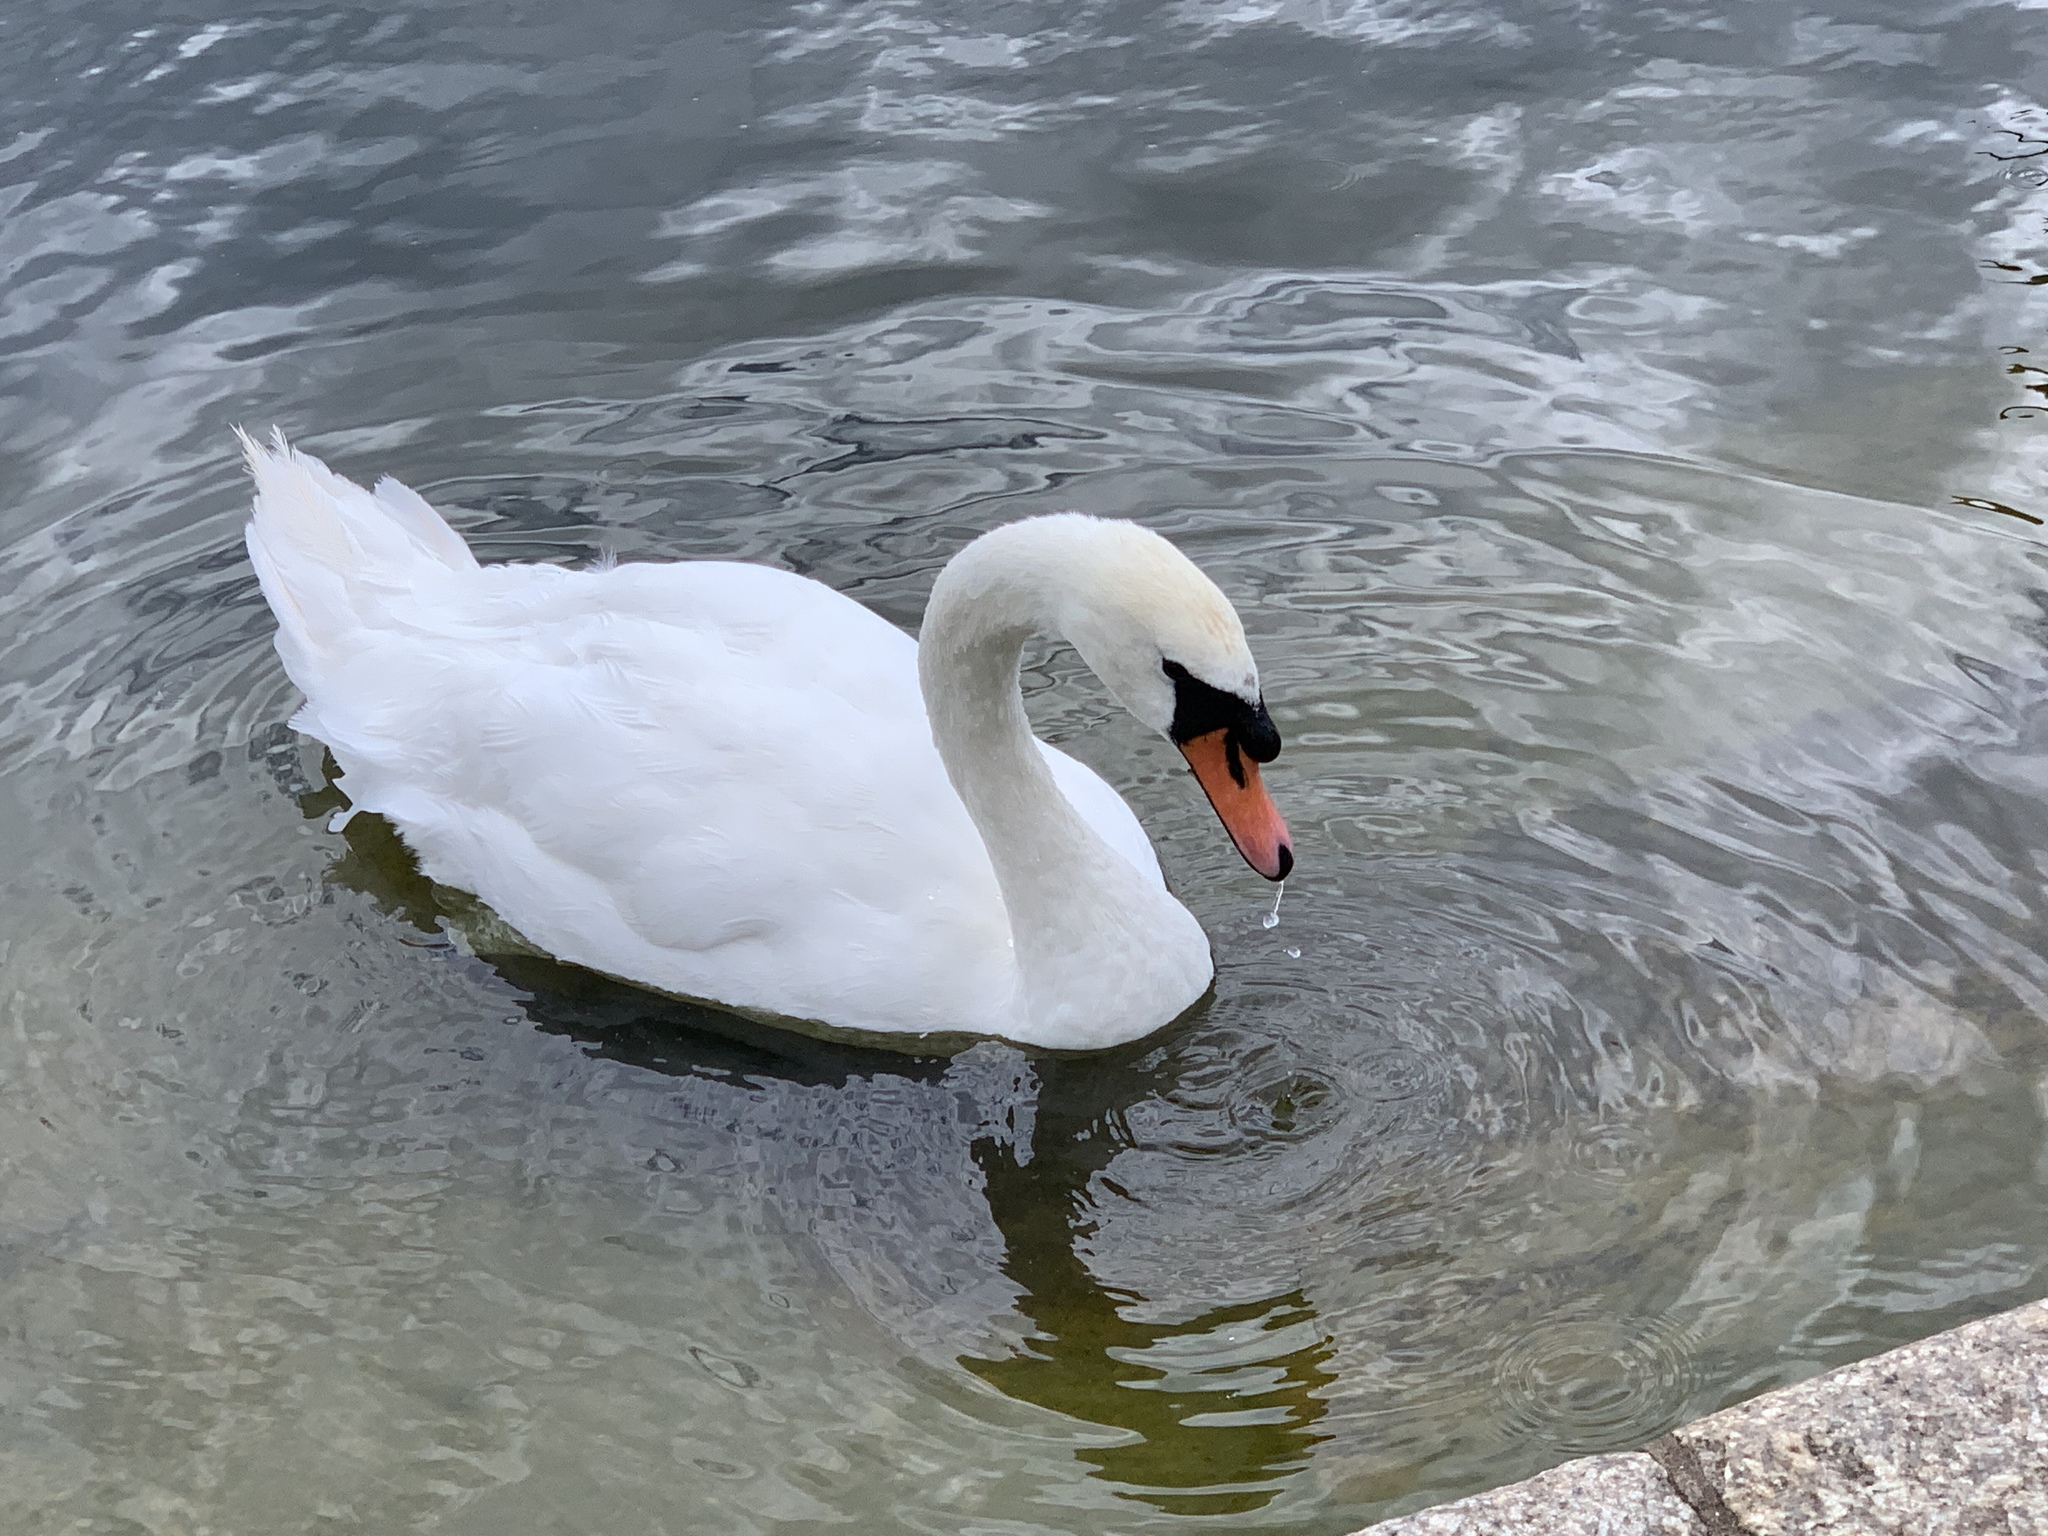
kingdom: Animalia
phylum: Chordata
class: Aves
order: Anseriformes
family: Anatidae
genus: Cygnus
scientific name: Cygnus olor
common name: Mute swan
